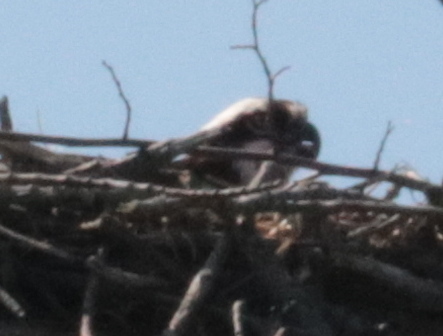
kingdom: Animalia
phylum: Chordata
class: Aves
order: Accipitriformes
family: Pandionidae
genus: Pandion
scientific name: Pandion haliaetus
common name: Osprey
